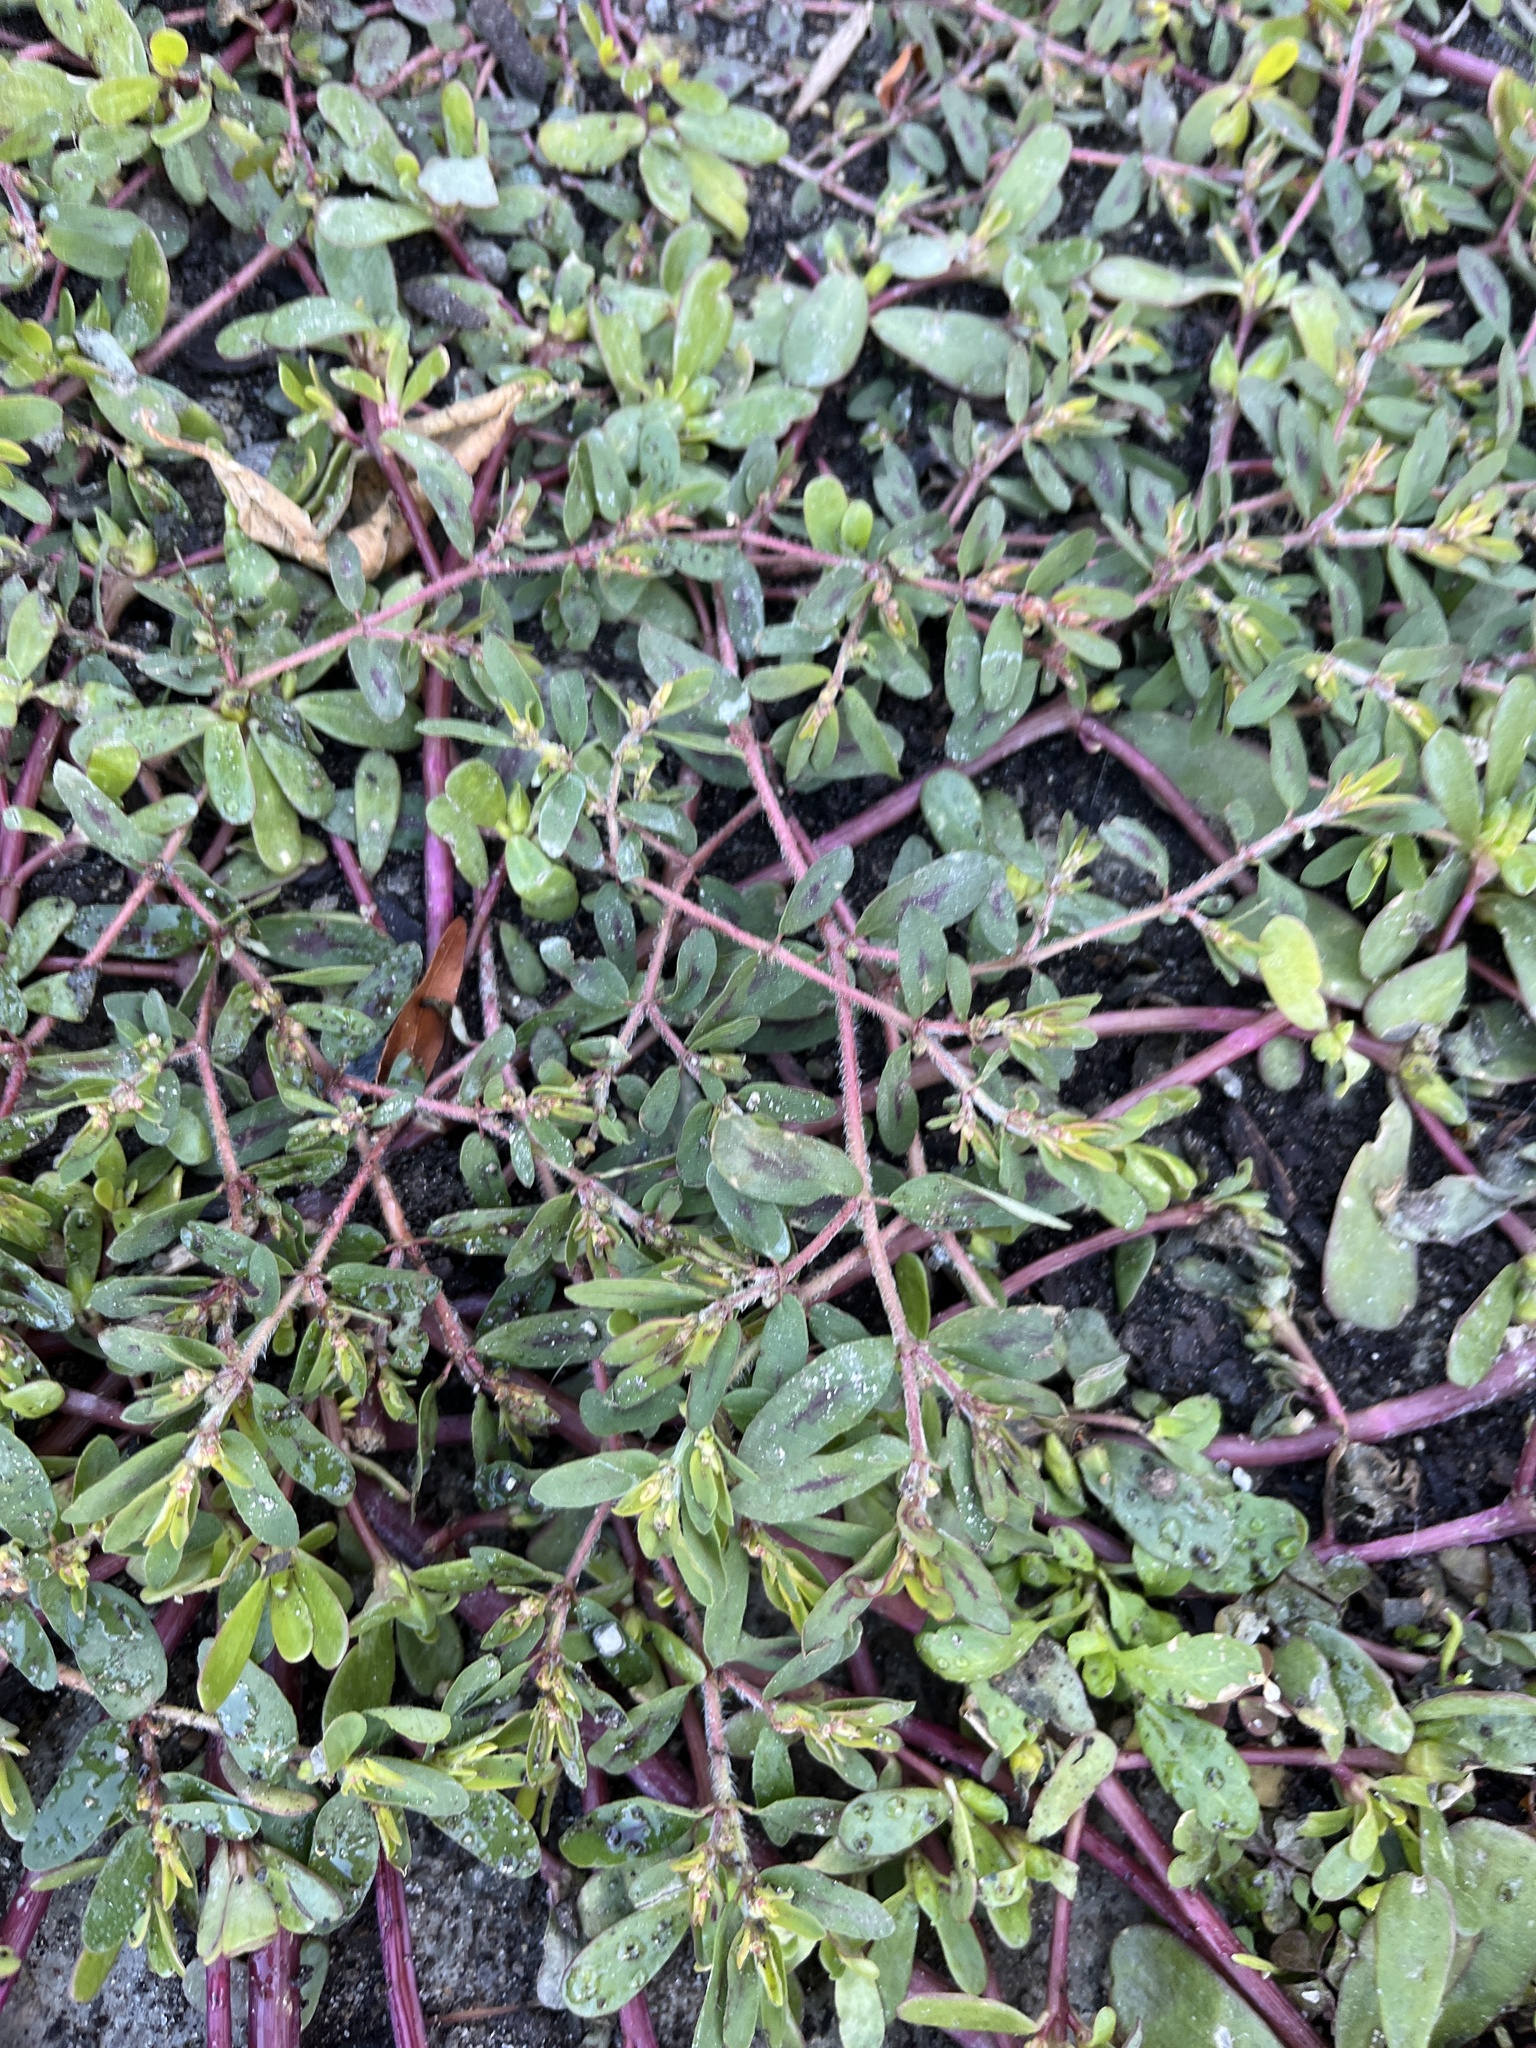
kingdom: Plantae
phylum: Tracheophyta
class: Magnoliopsida
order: Malpighiales
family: Euphorbiaceae
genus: Euphorbia
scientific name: Euphorbia maculata
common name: Spotted spurge
